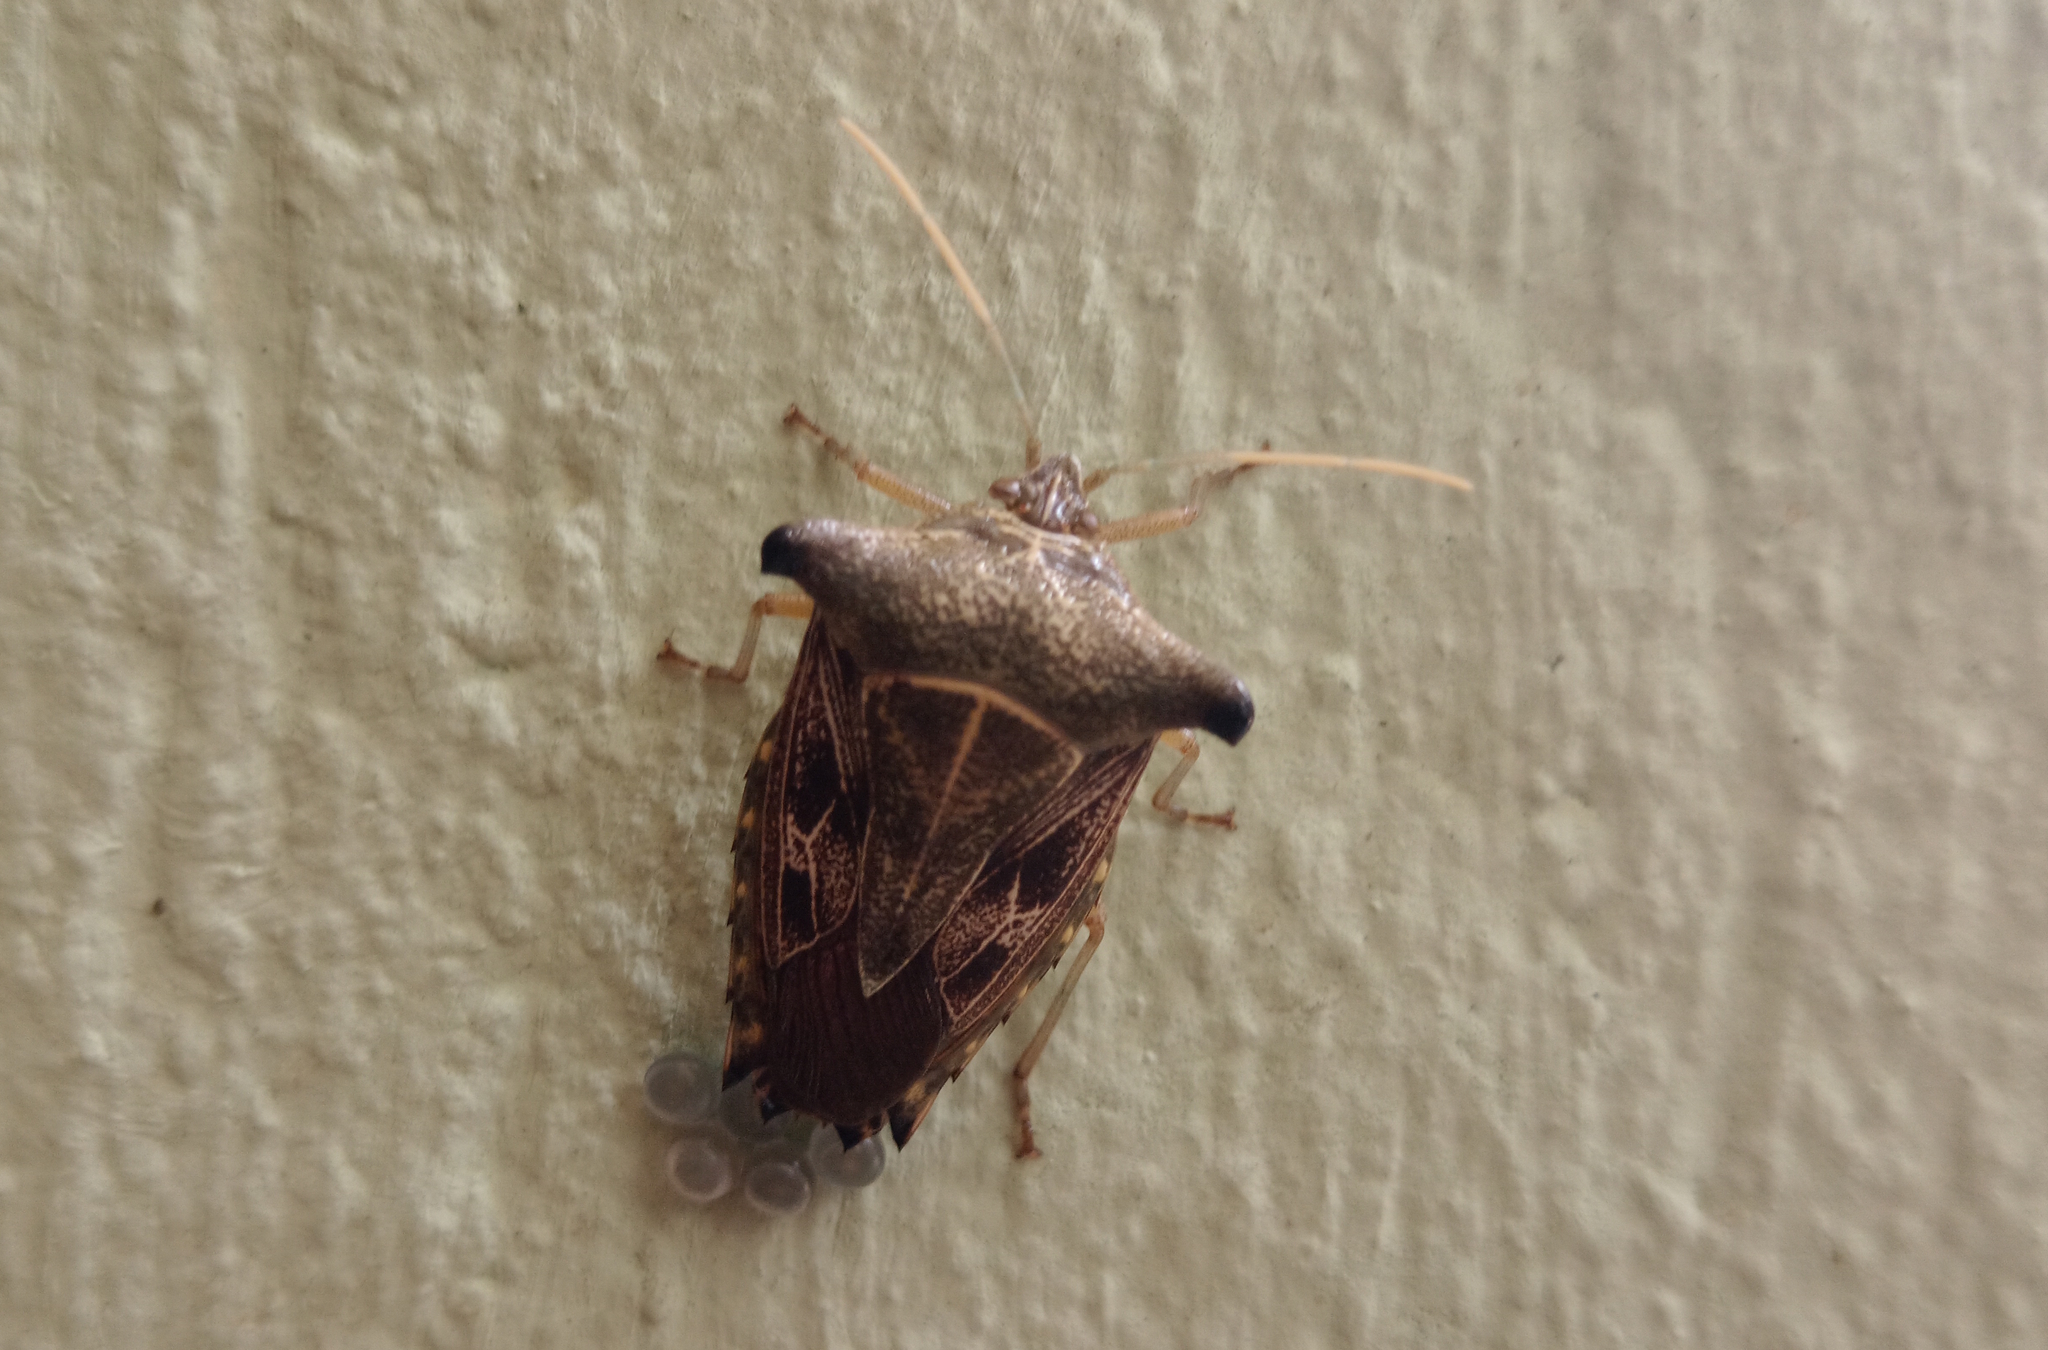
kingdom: Animalia
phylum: Arthropoda
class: Insecta
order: Hemiptera
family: Pentatomidae
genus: Edessa
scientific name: Edessa
